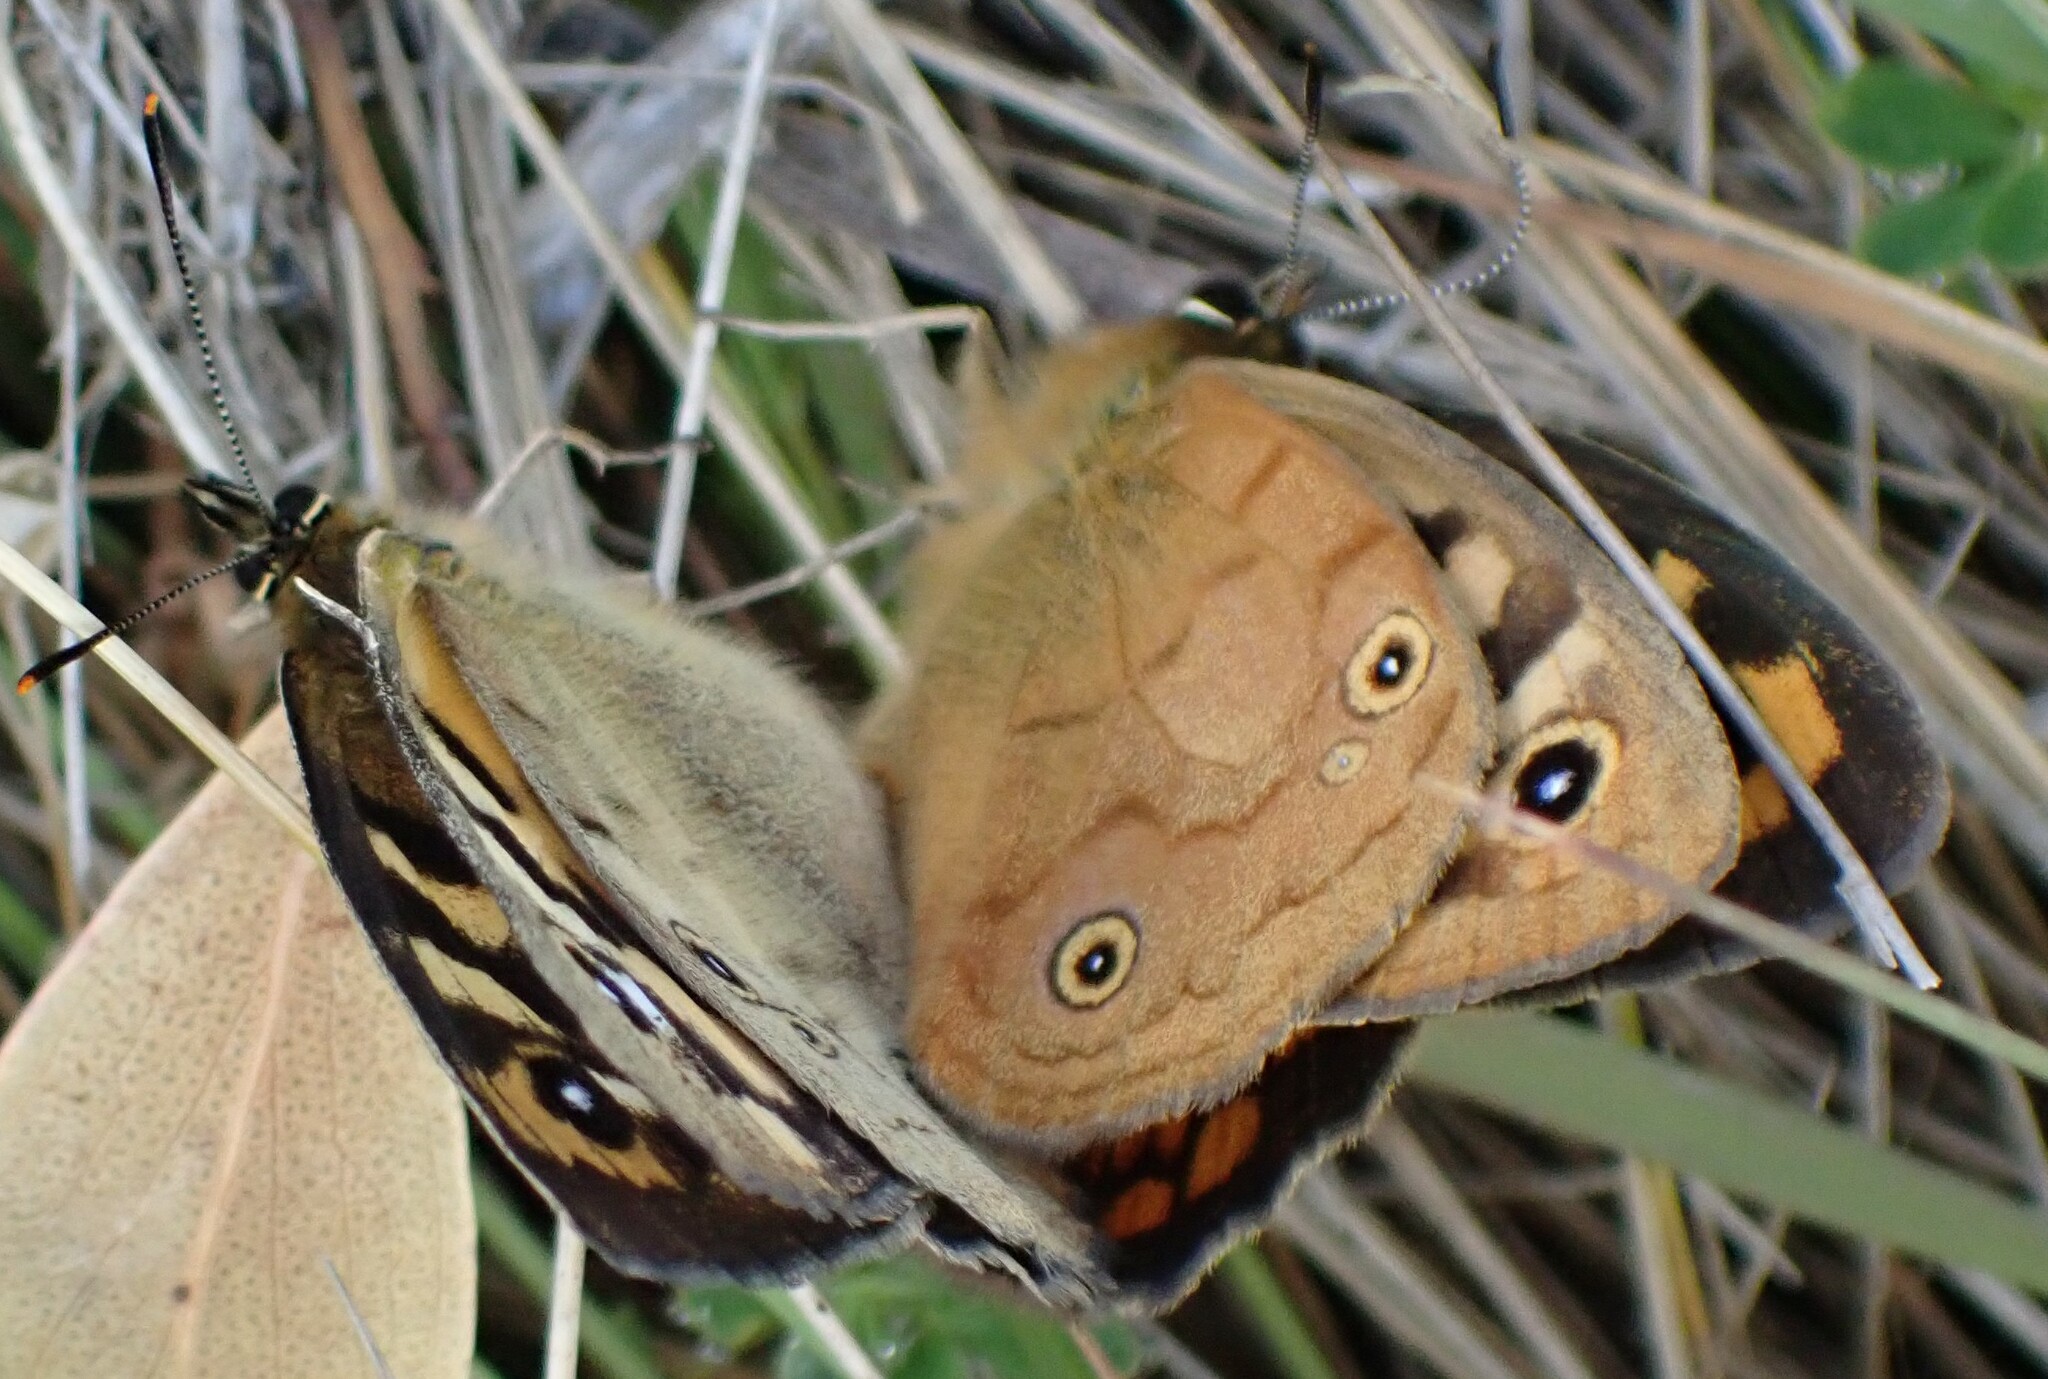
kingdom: Animalia
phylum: Arthropoda
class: Insecta
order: Lepidoptera
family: Nymphalidae
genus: Heteronympha
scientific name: Heteronympha penelope
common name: Shouldered brown
